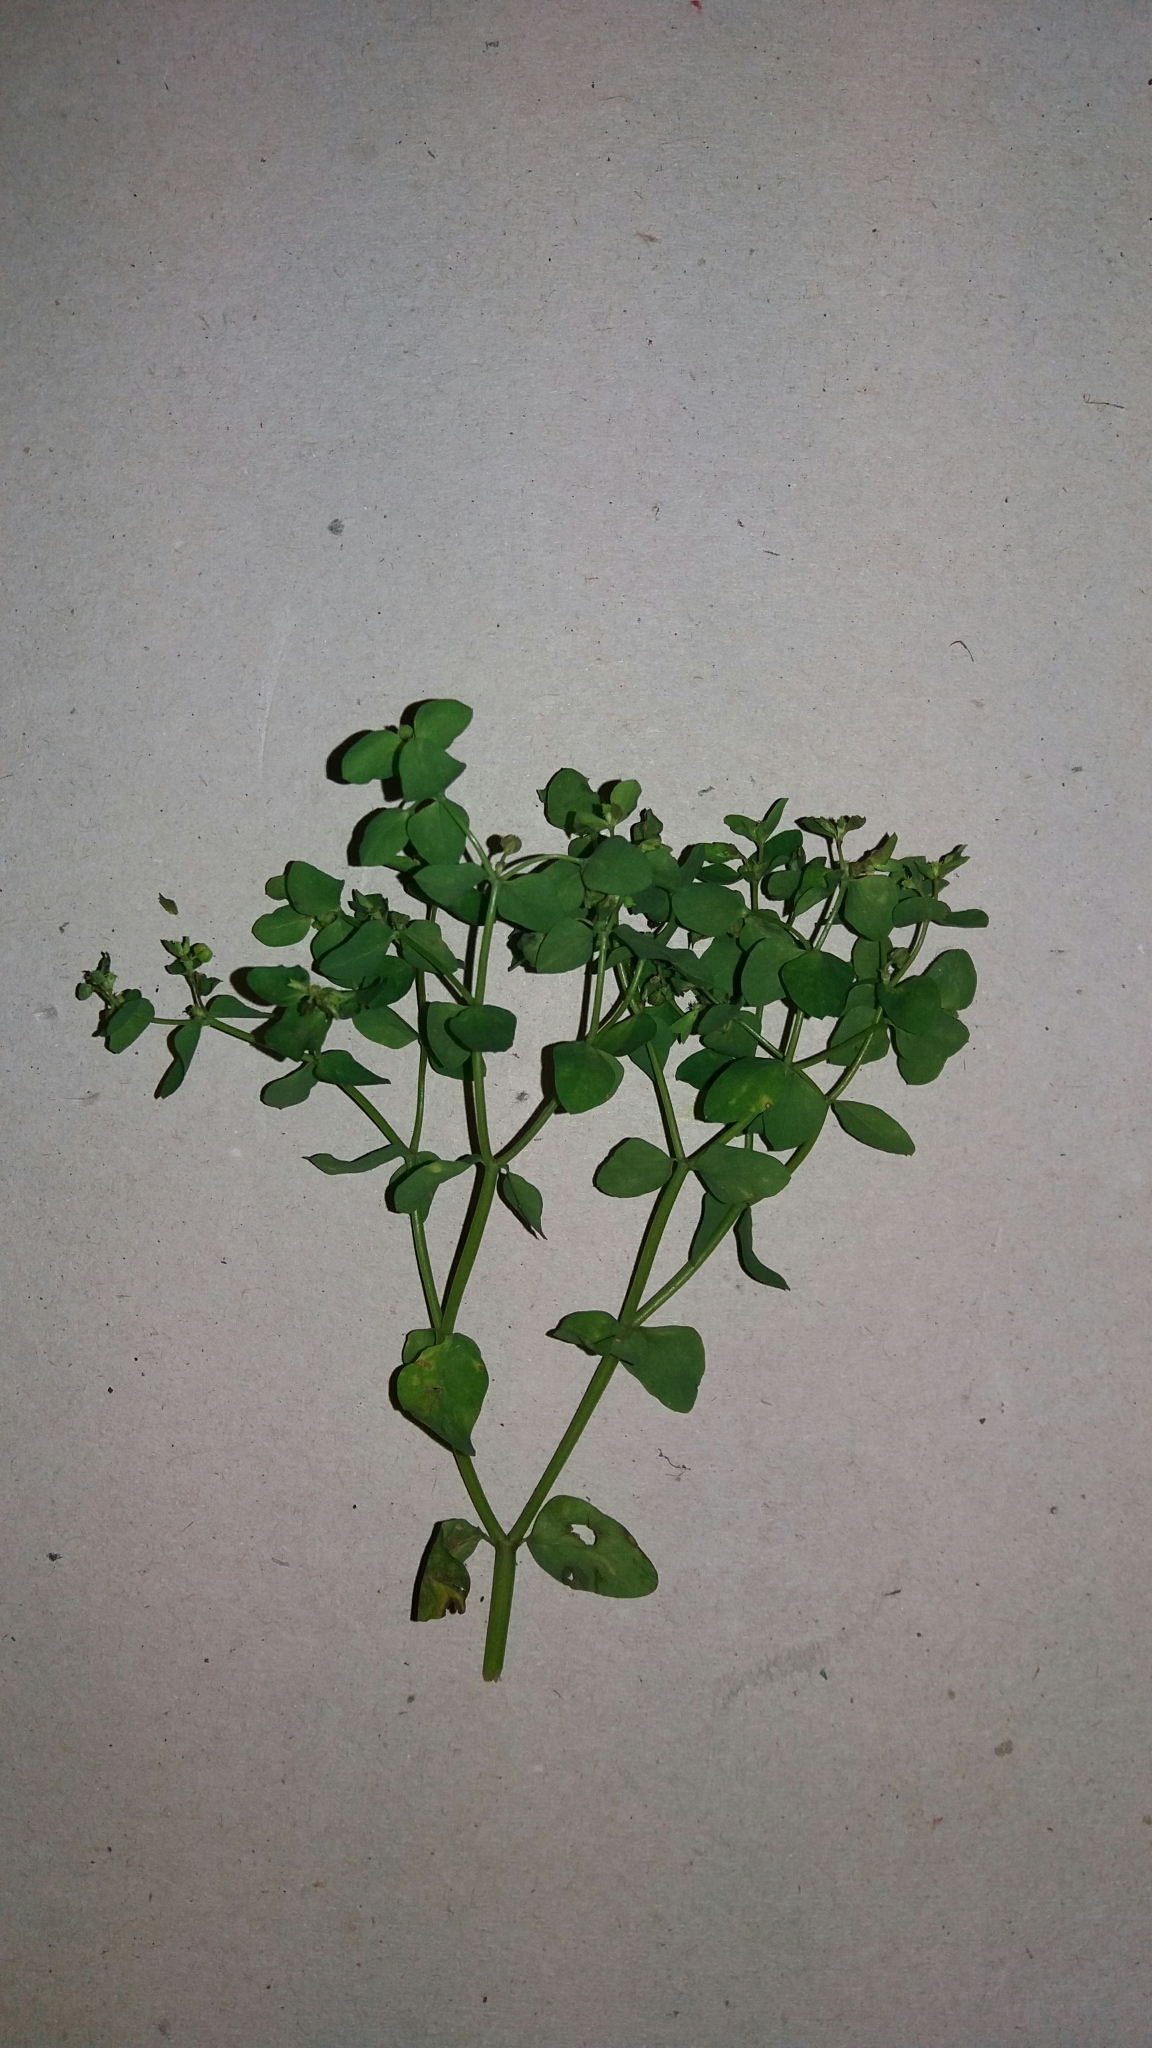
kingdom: Plantae
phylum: Tracheophyta
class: Magnoliopsida
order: Malpighiales
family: Euphorbiaceae
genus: Euphorbia
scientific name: Euphorbia peplus
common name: Petty spurge
